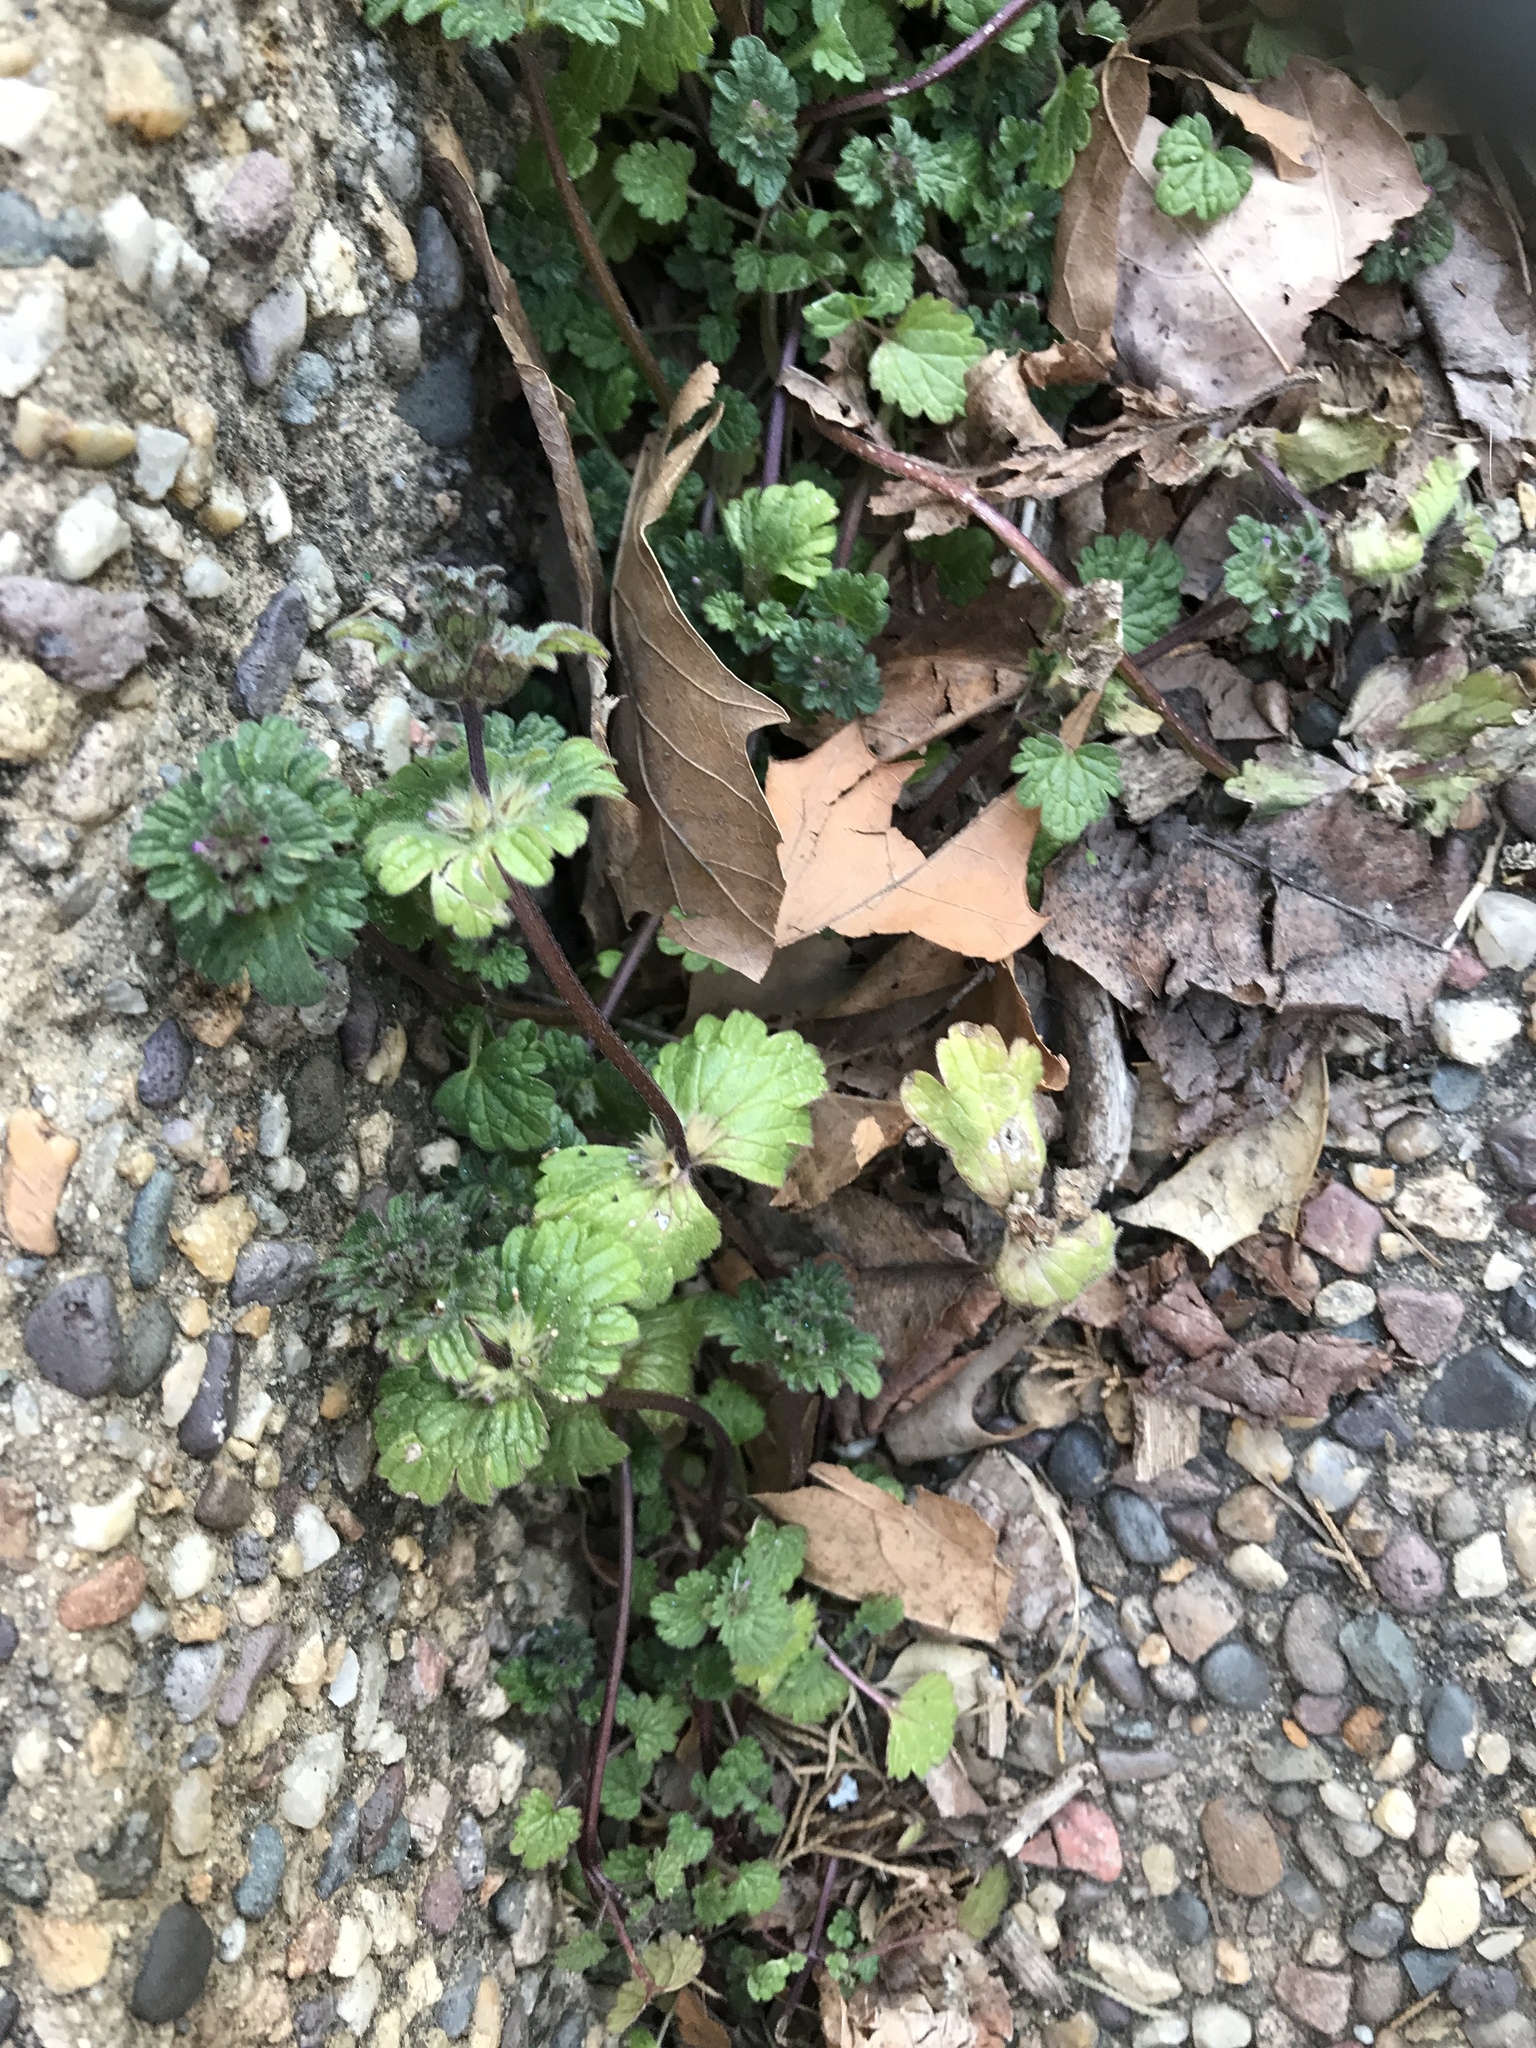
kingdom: Plantae
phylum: Tracheophyta
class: Magnoliopsida
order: Lamiales
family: Lamiaceae
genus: Lamium
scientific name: Lamium amplexicaule
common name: Henbit dead-nettle
